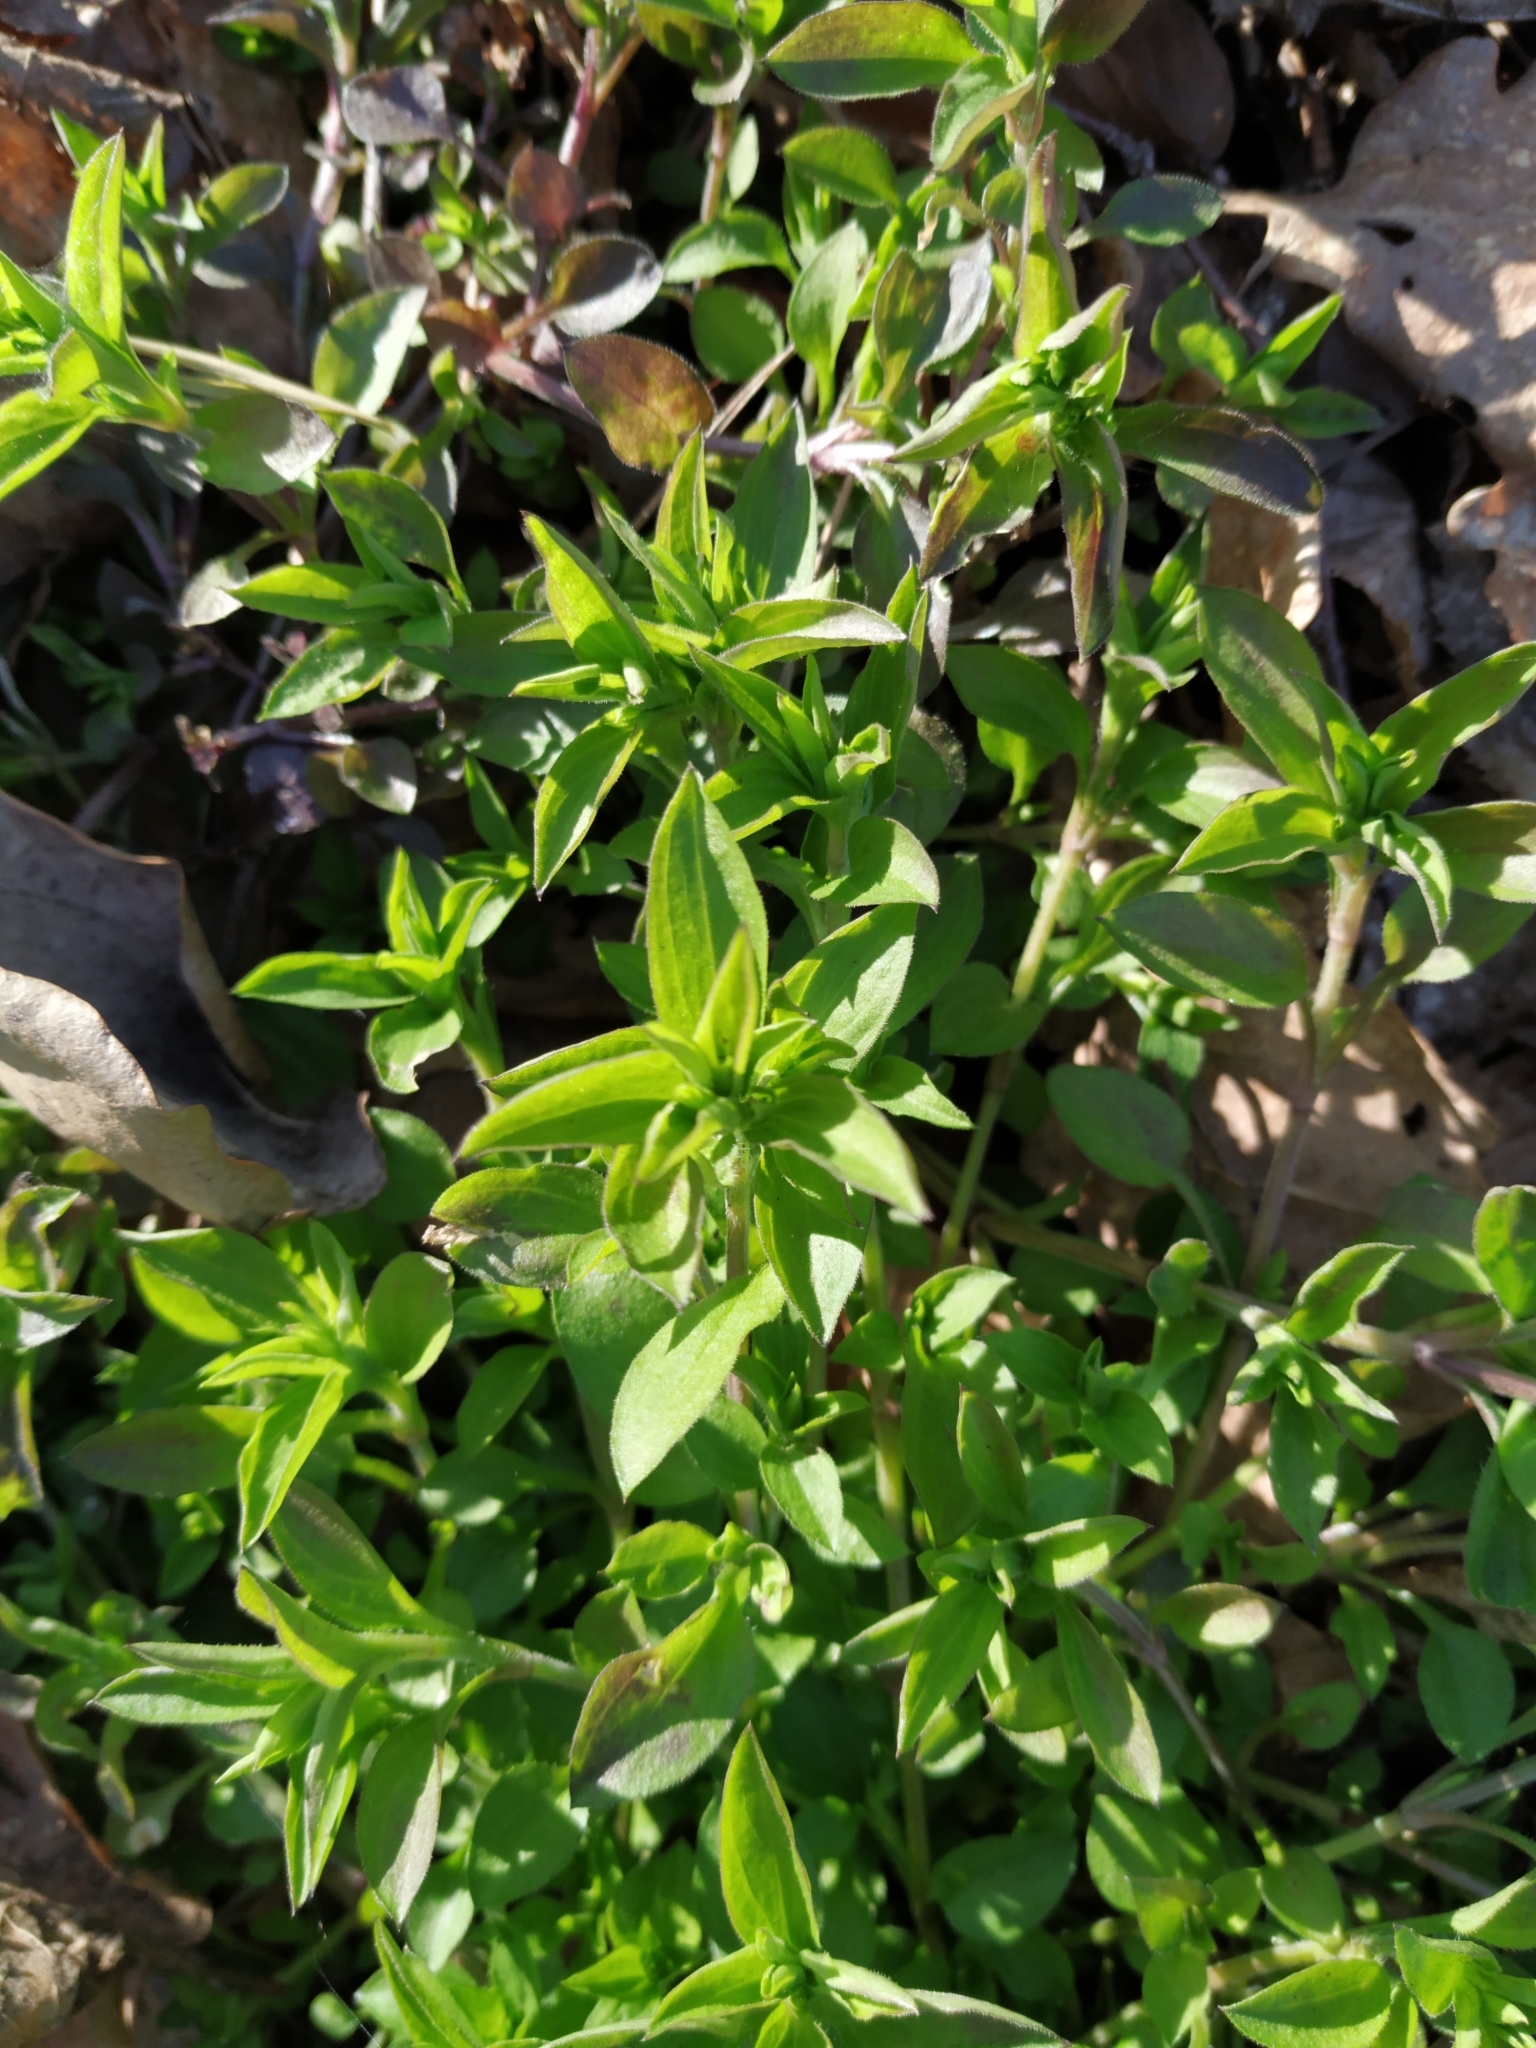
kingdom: Plantae
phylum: Tracheophyta
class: Magnoliopsida
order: Caryophyllales
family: Caryophyllaceae
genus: Moehringia
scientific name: Moehringia trinervia
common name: Three-nerved sandwort
